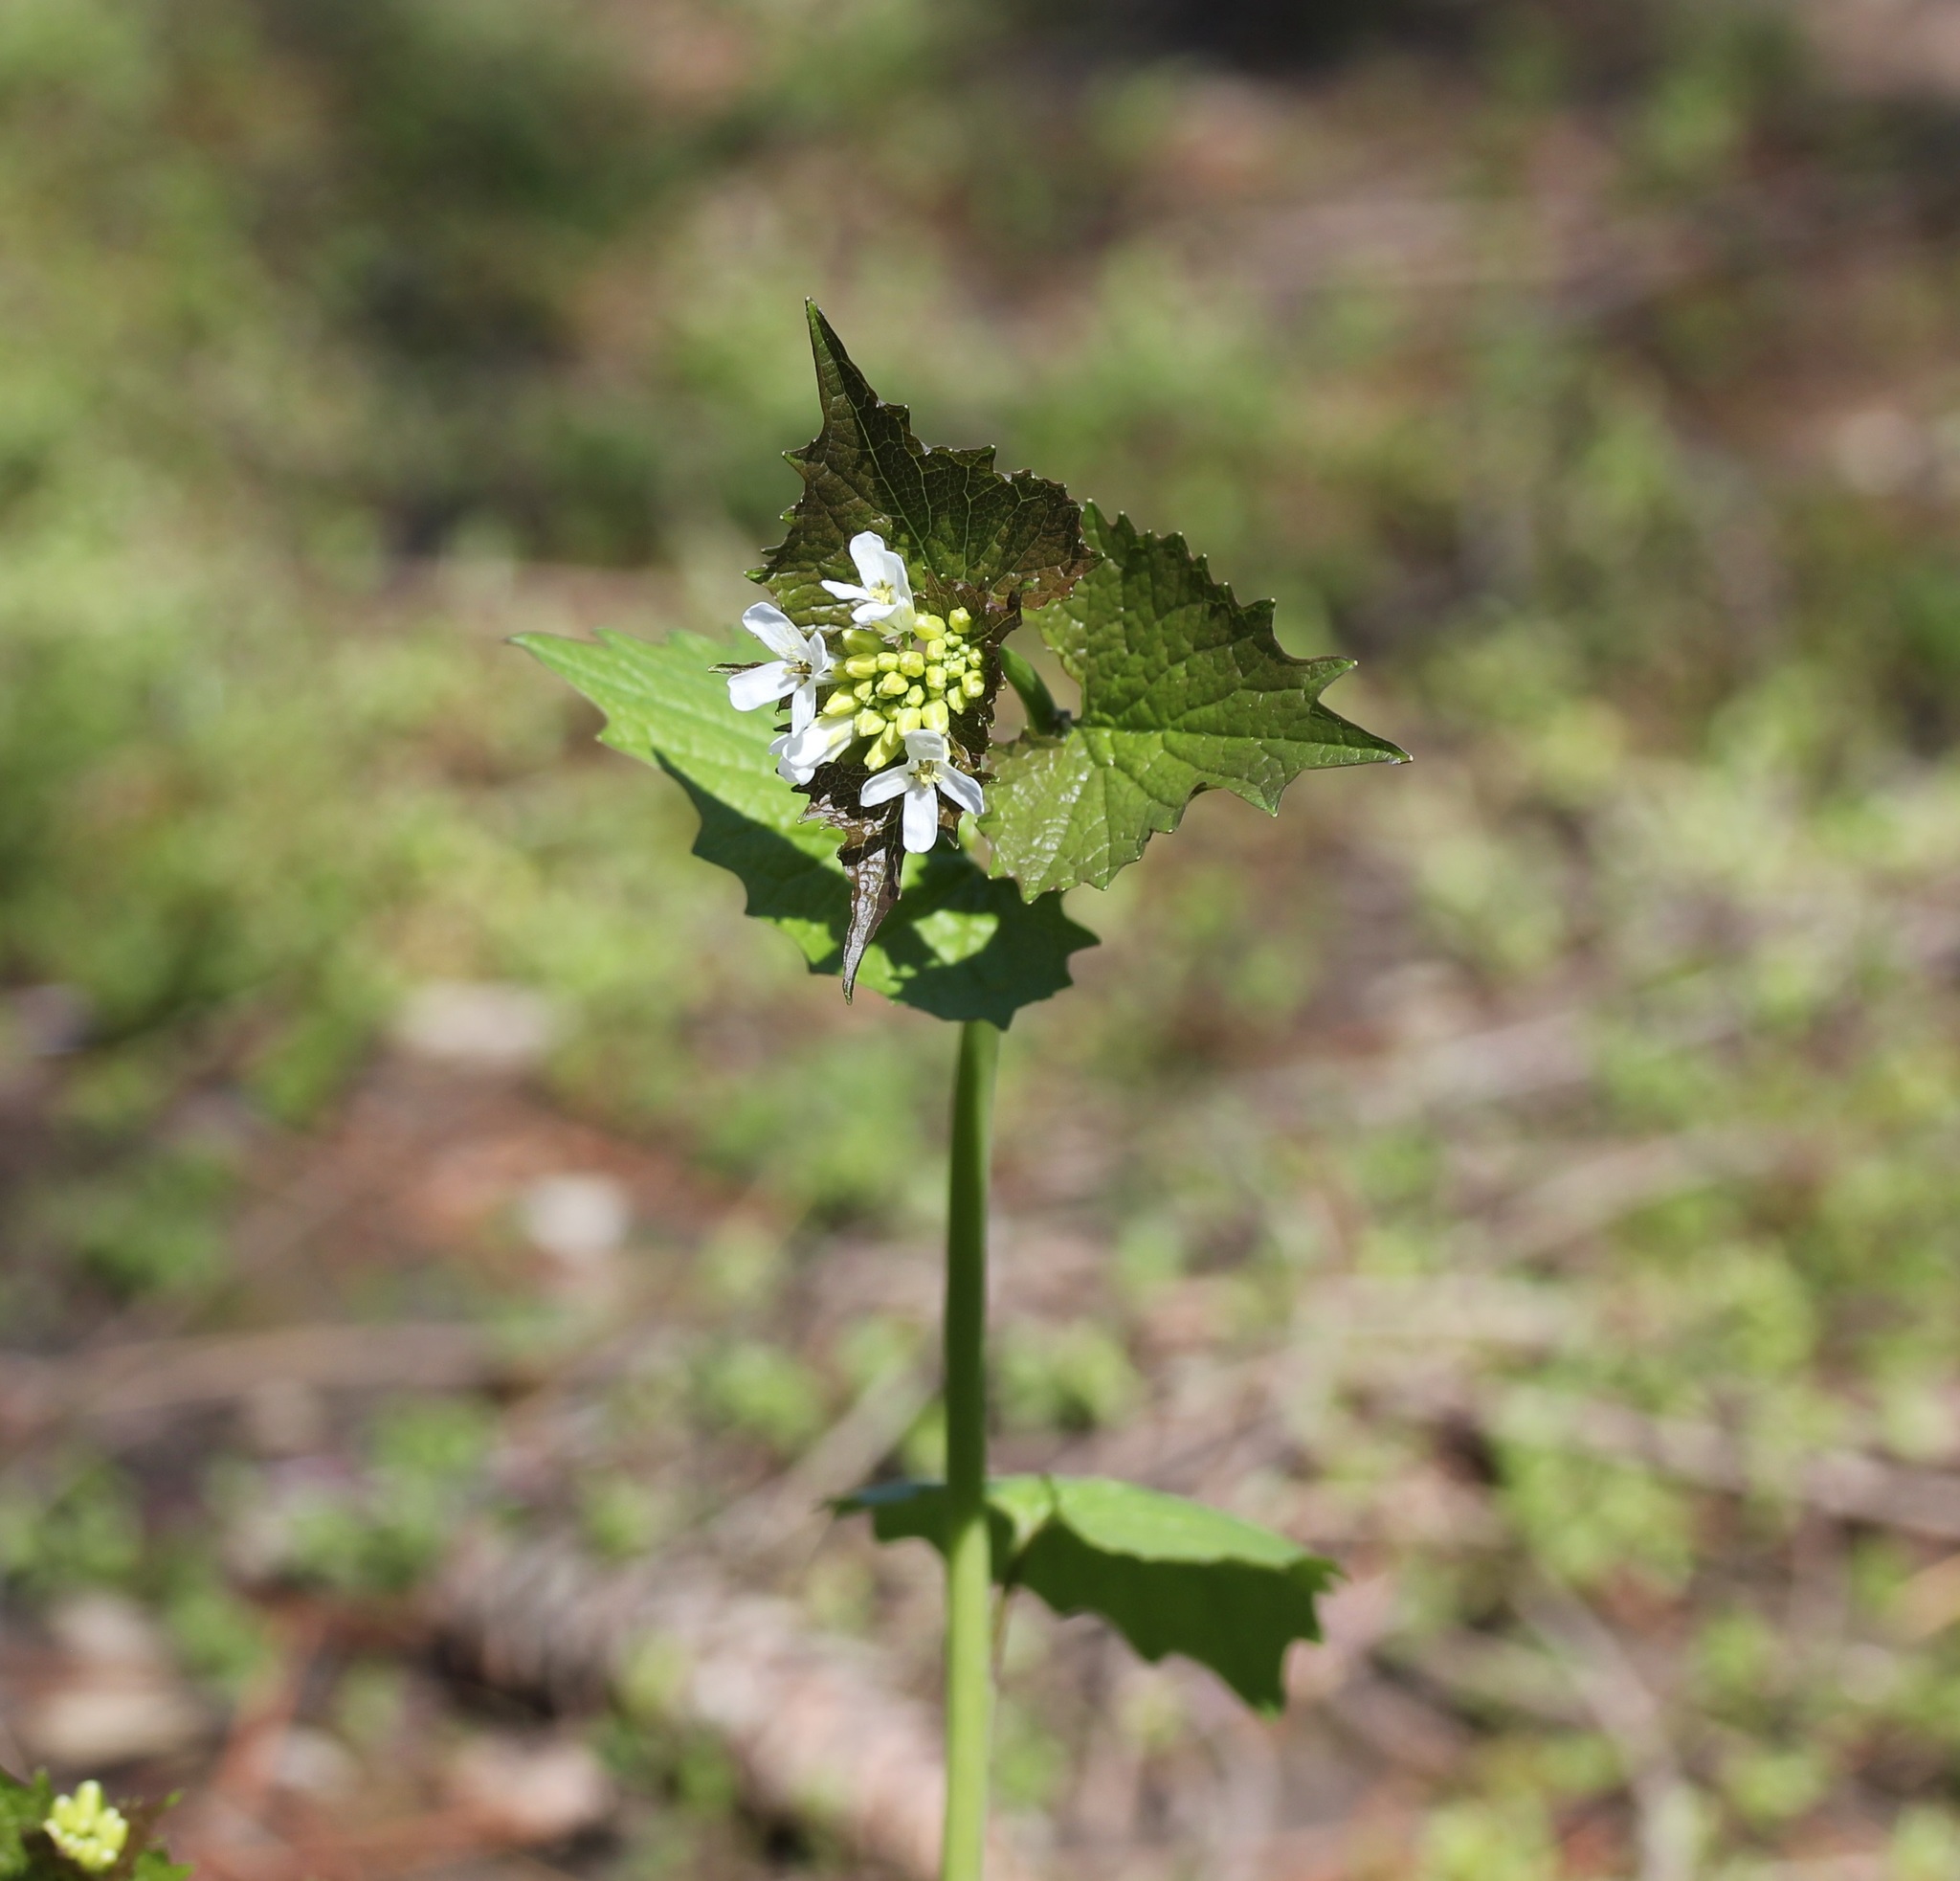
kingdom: Plantae
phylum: Tracheophyta
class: Magnoliopsida
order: Brassicales
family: Brassicaceae
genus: Alliaria
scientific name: Alliaria petiolata
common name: Garlic mustard
